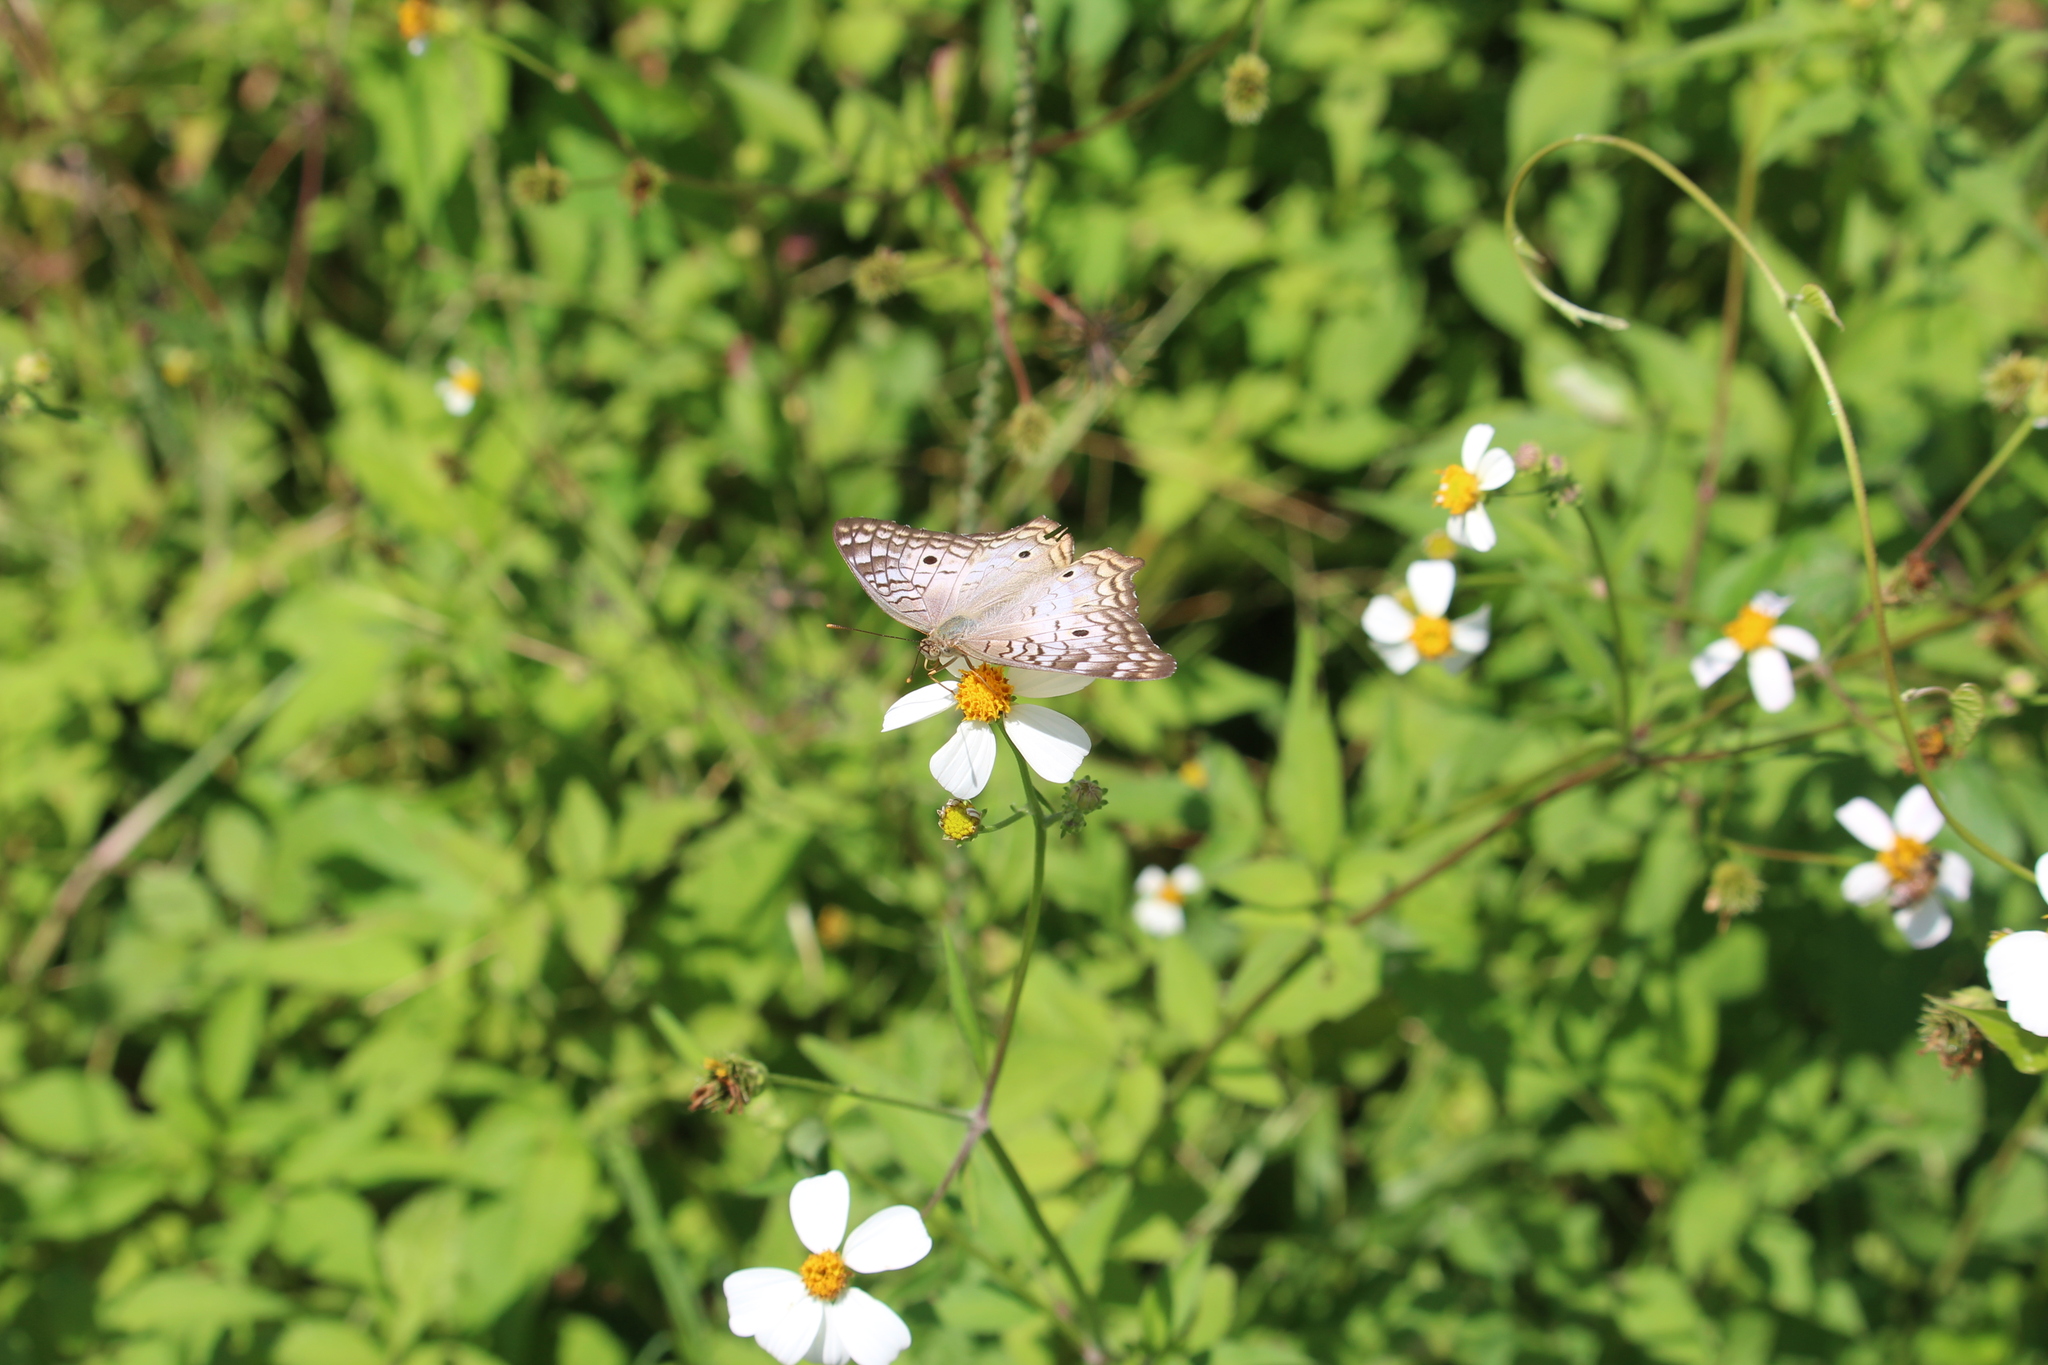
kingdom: Animalia
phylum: Arthropoda
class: Insecta
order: Lepidoptera
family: Nymphalidae
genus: Anartia
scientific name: Anartia jatrophae
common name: White peacock
